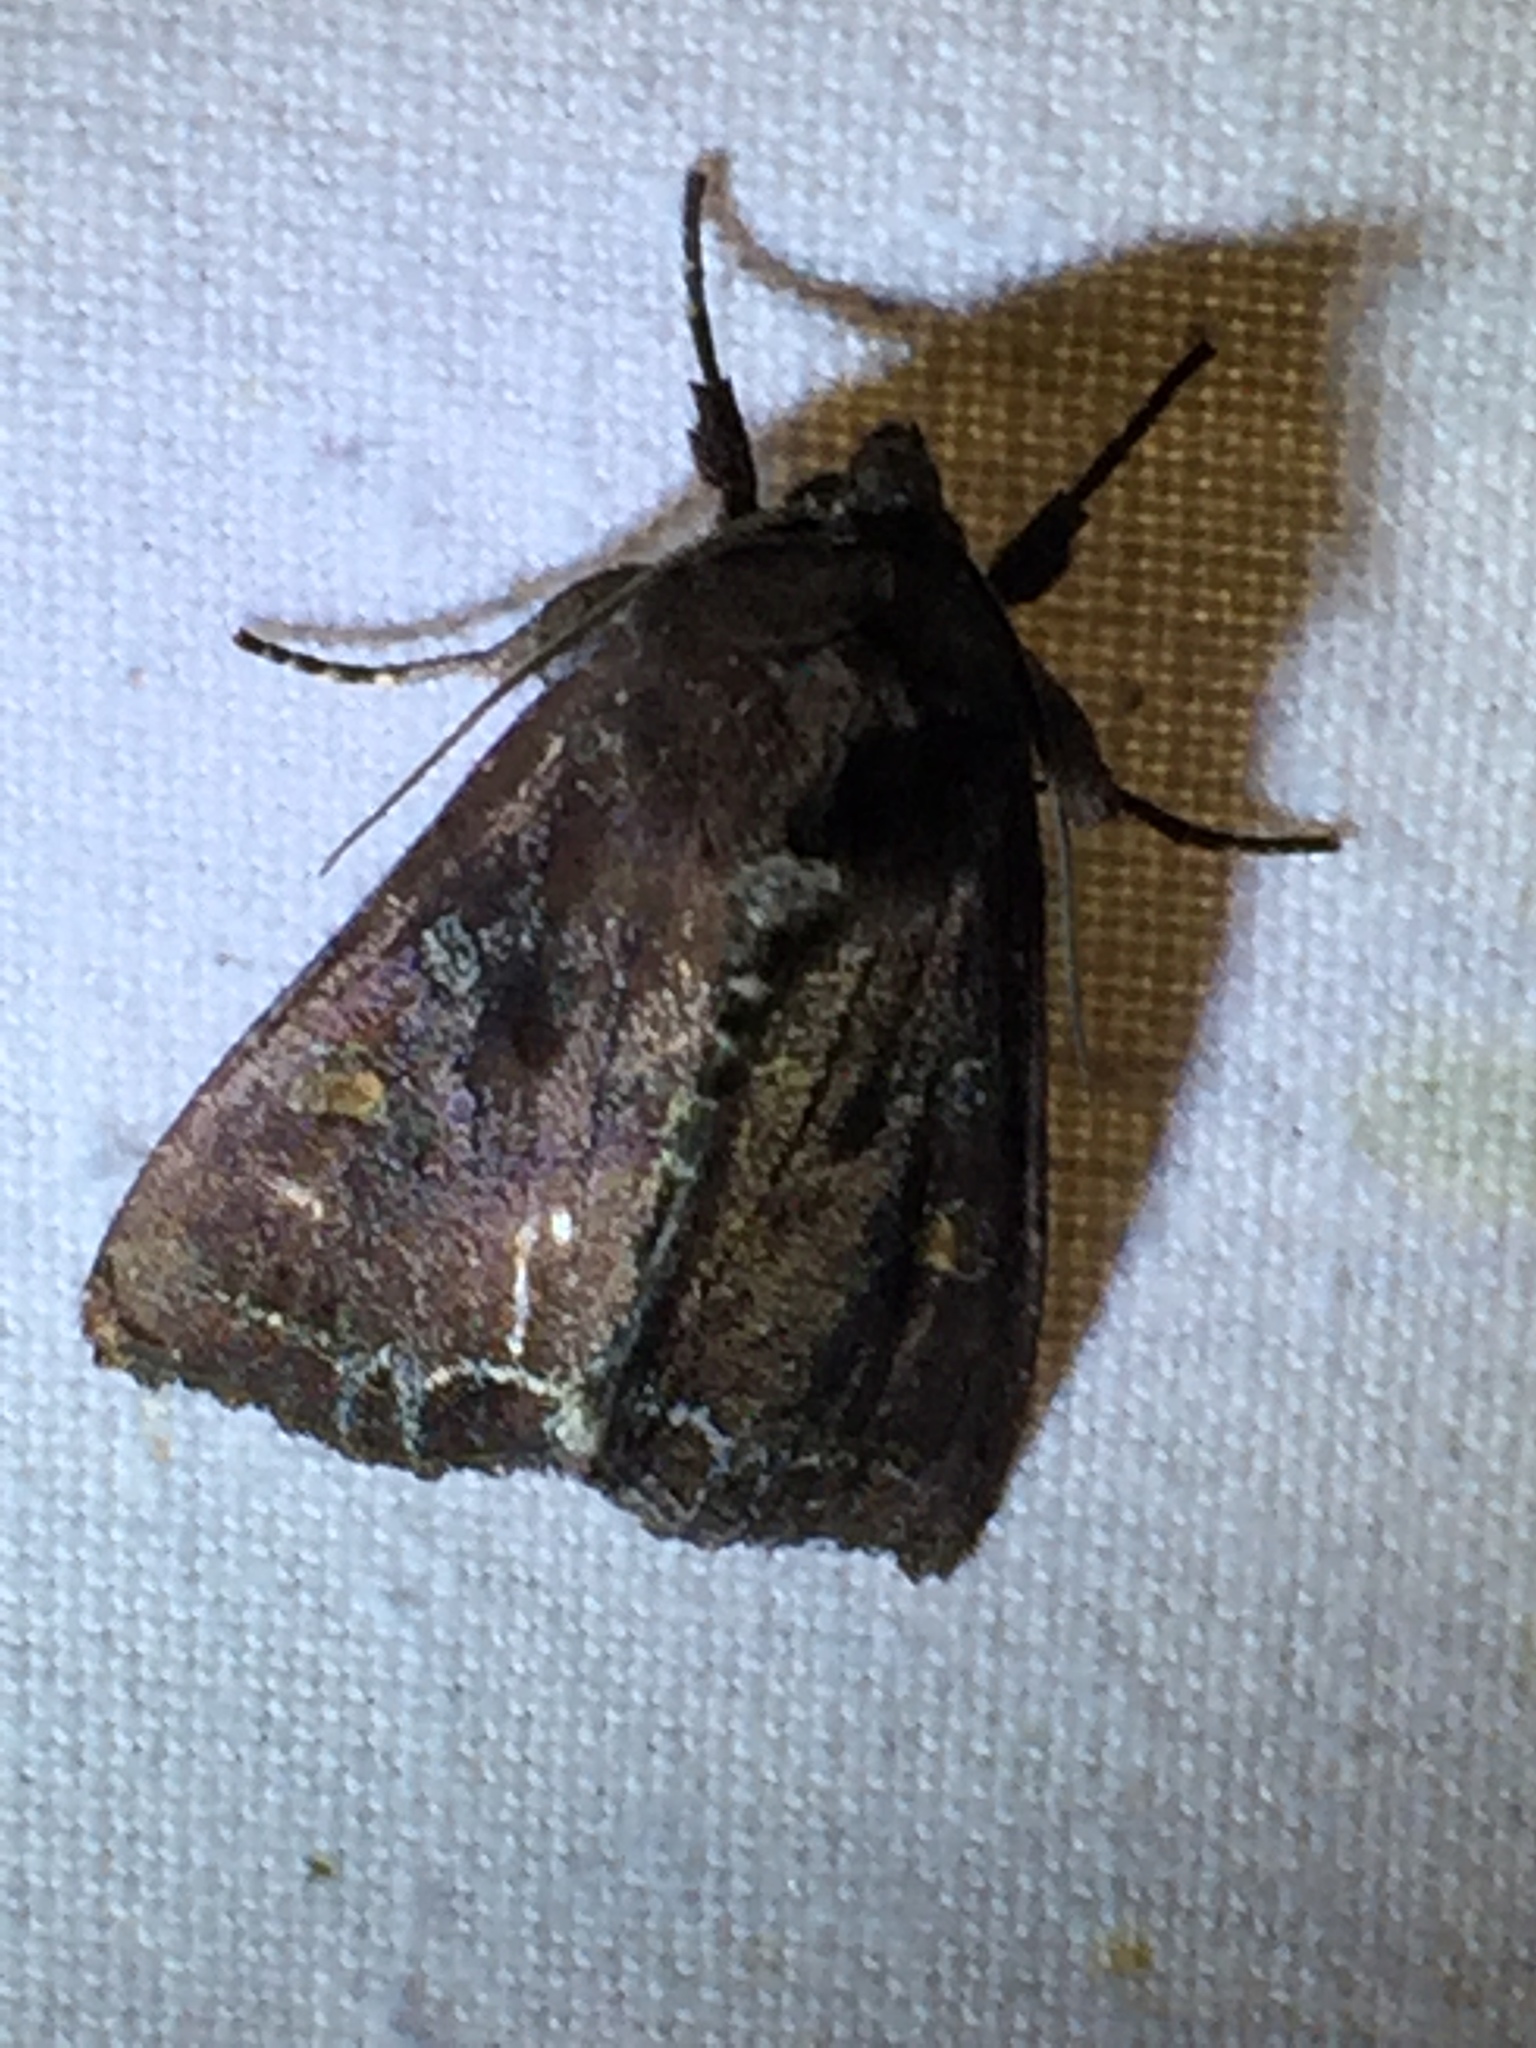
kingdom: Animalia
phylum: Arthropoda
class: Insecta
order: Lepidoptera
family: Noctuidae
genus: Lacanobia
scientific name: Lacanobia oleracea
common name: Bright-line brown-eye
